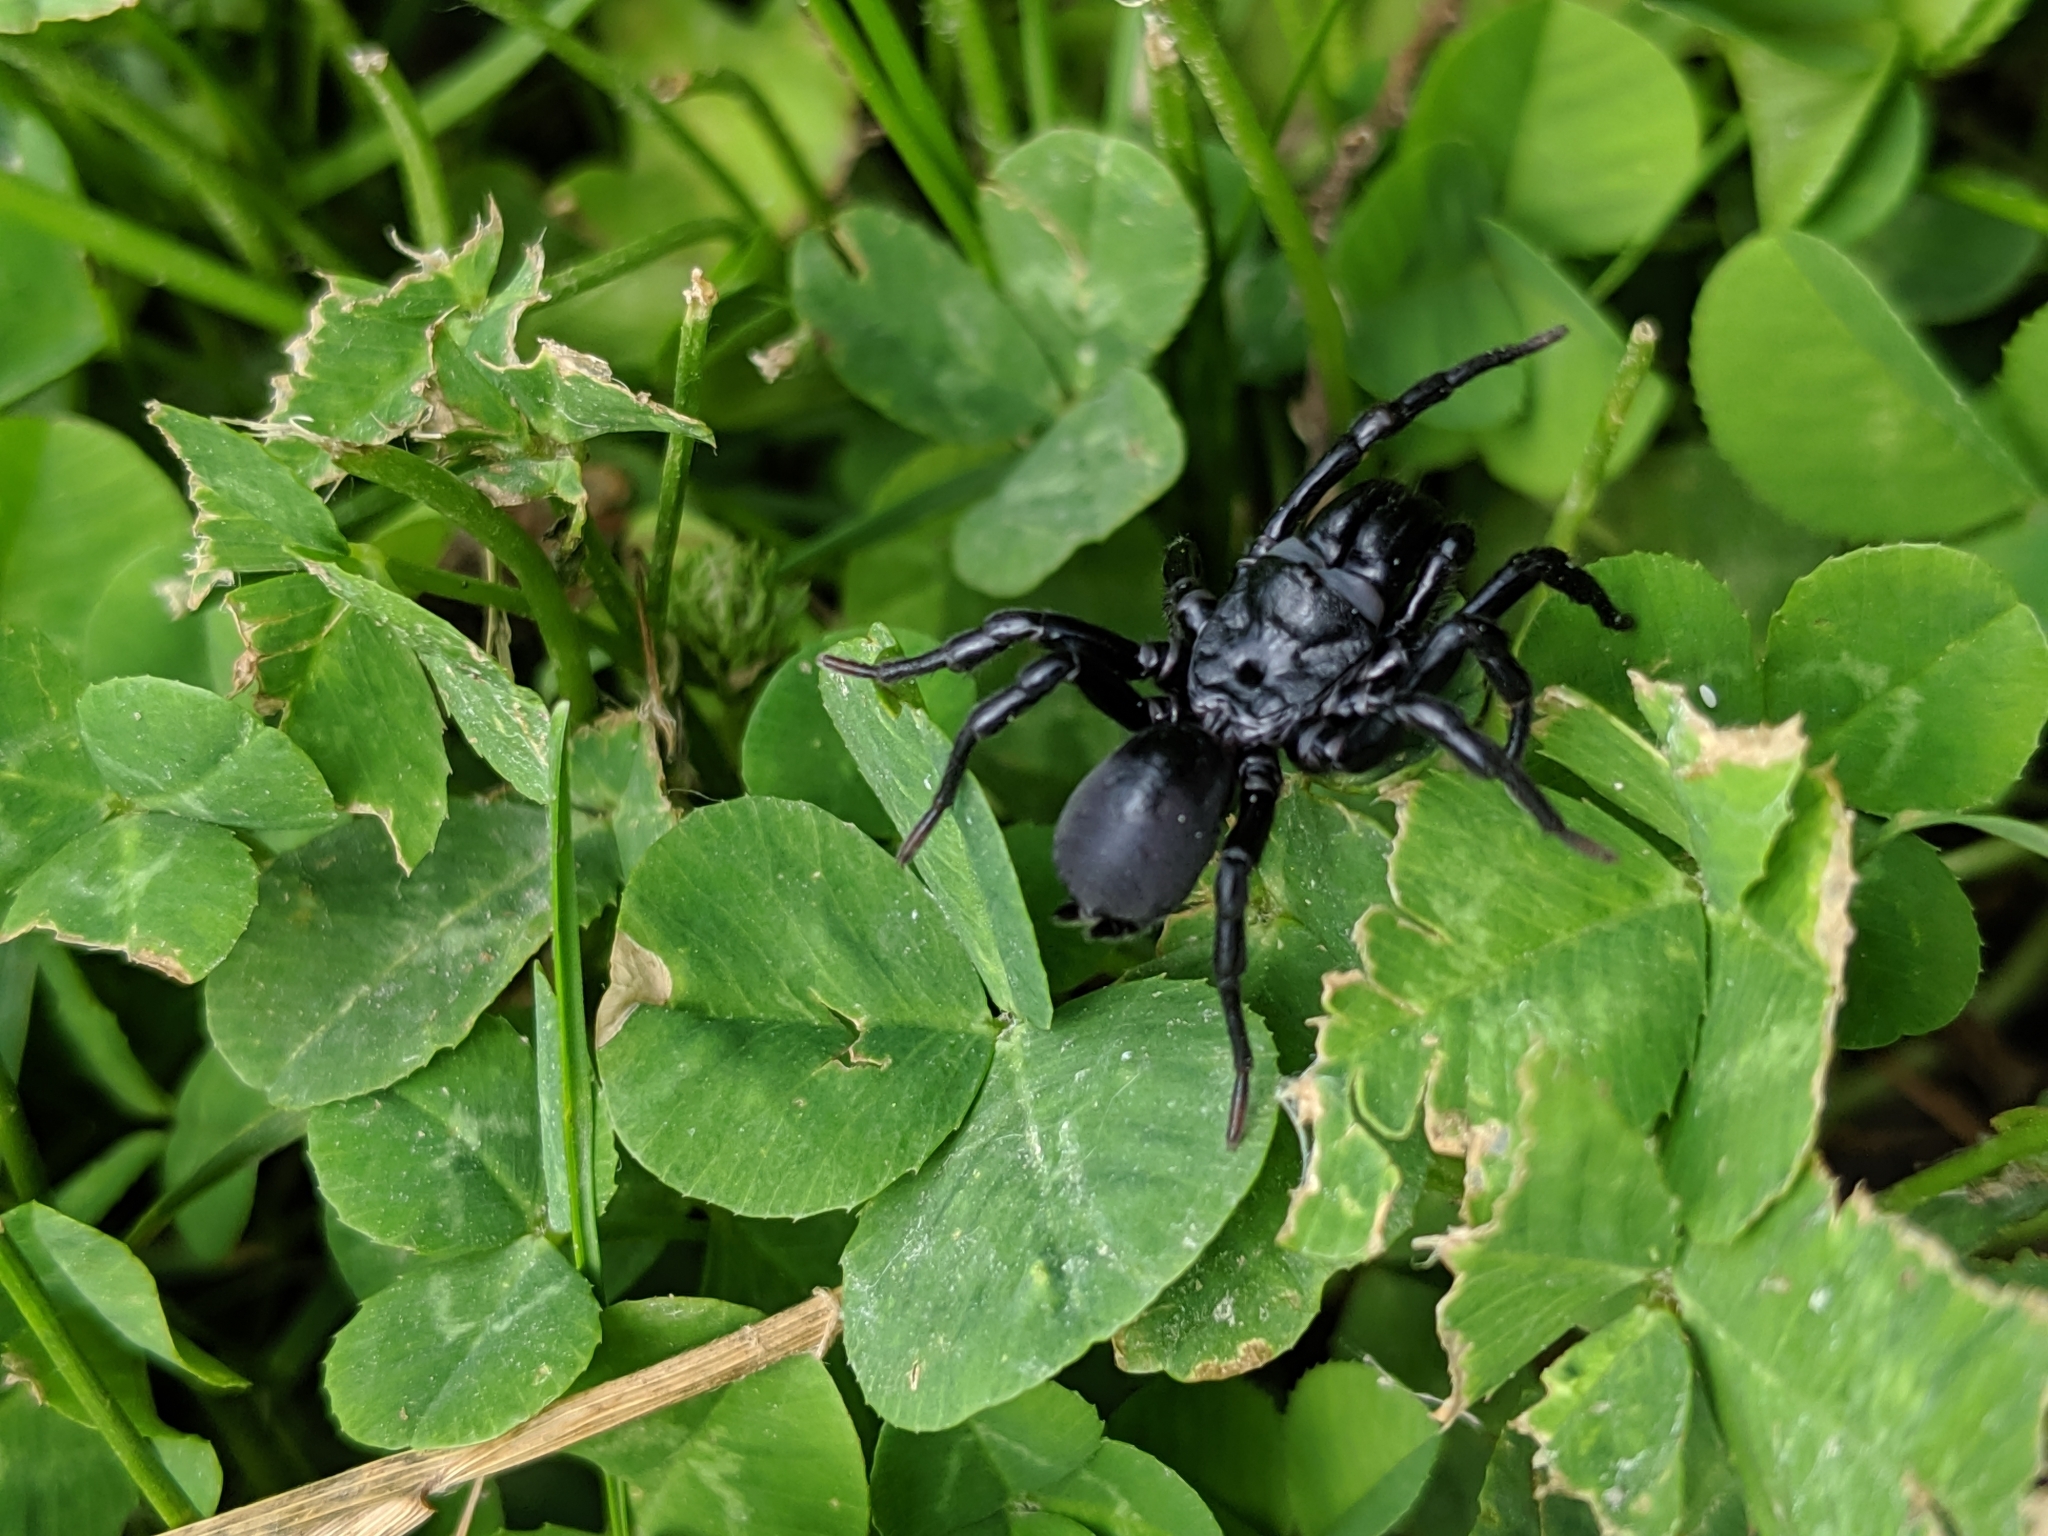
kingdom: Animalia
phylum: Arthropoda
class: Arachnida
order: Araneae
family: Atypidae
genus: Sphodros
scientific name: Sphodros niger
